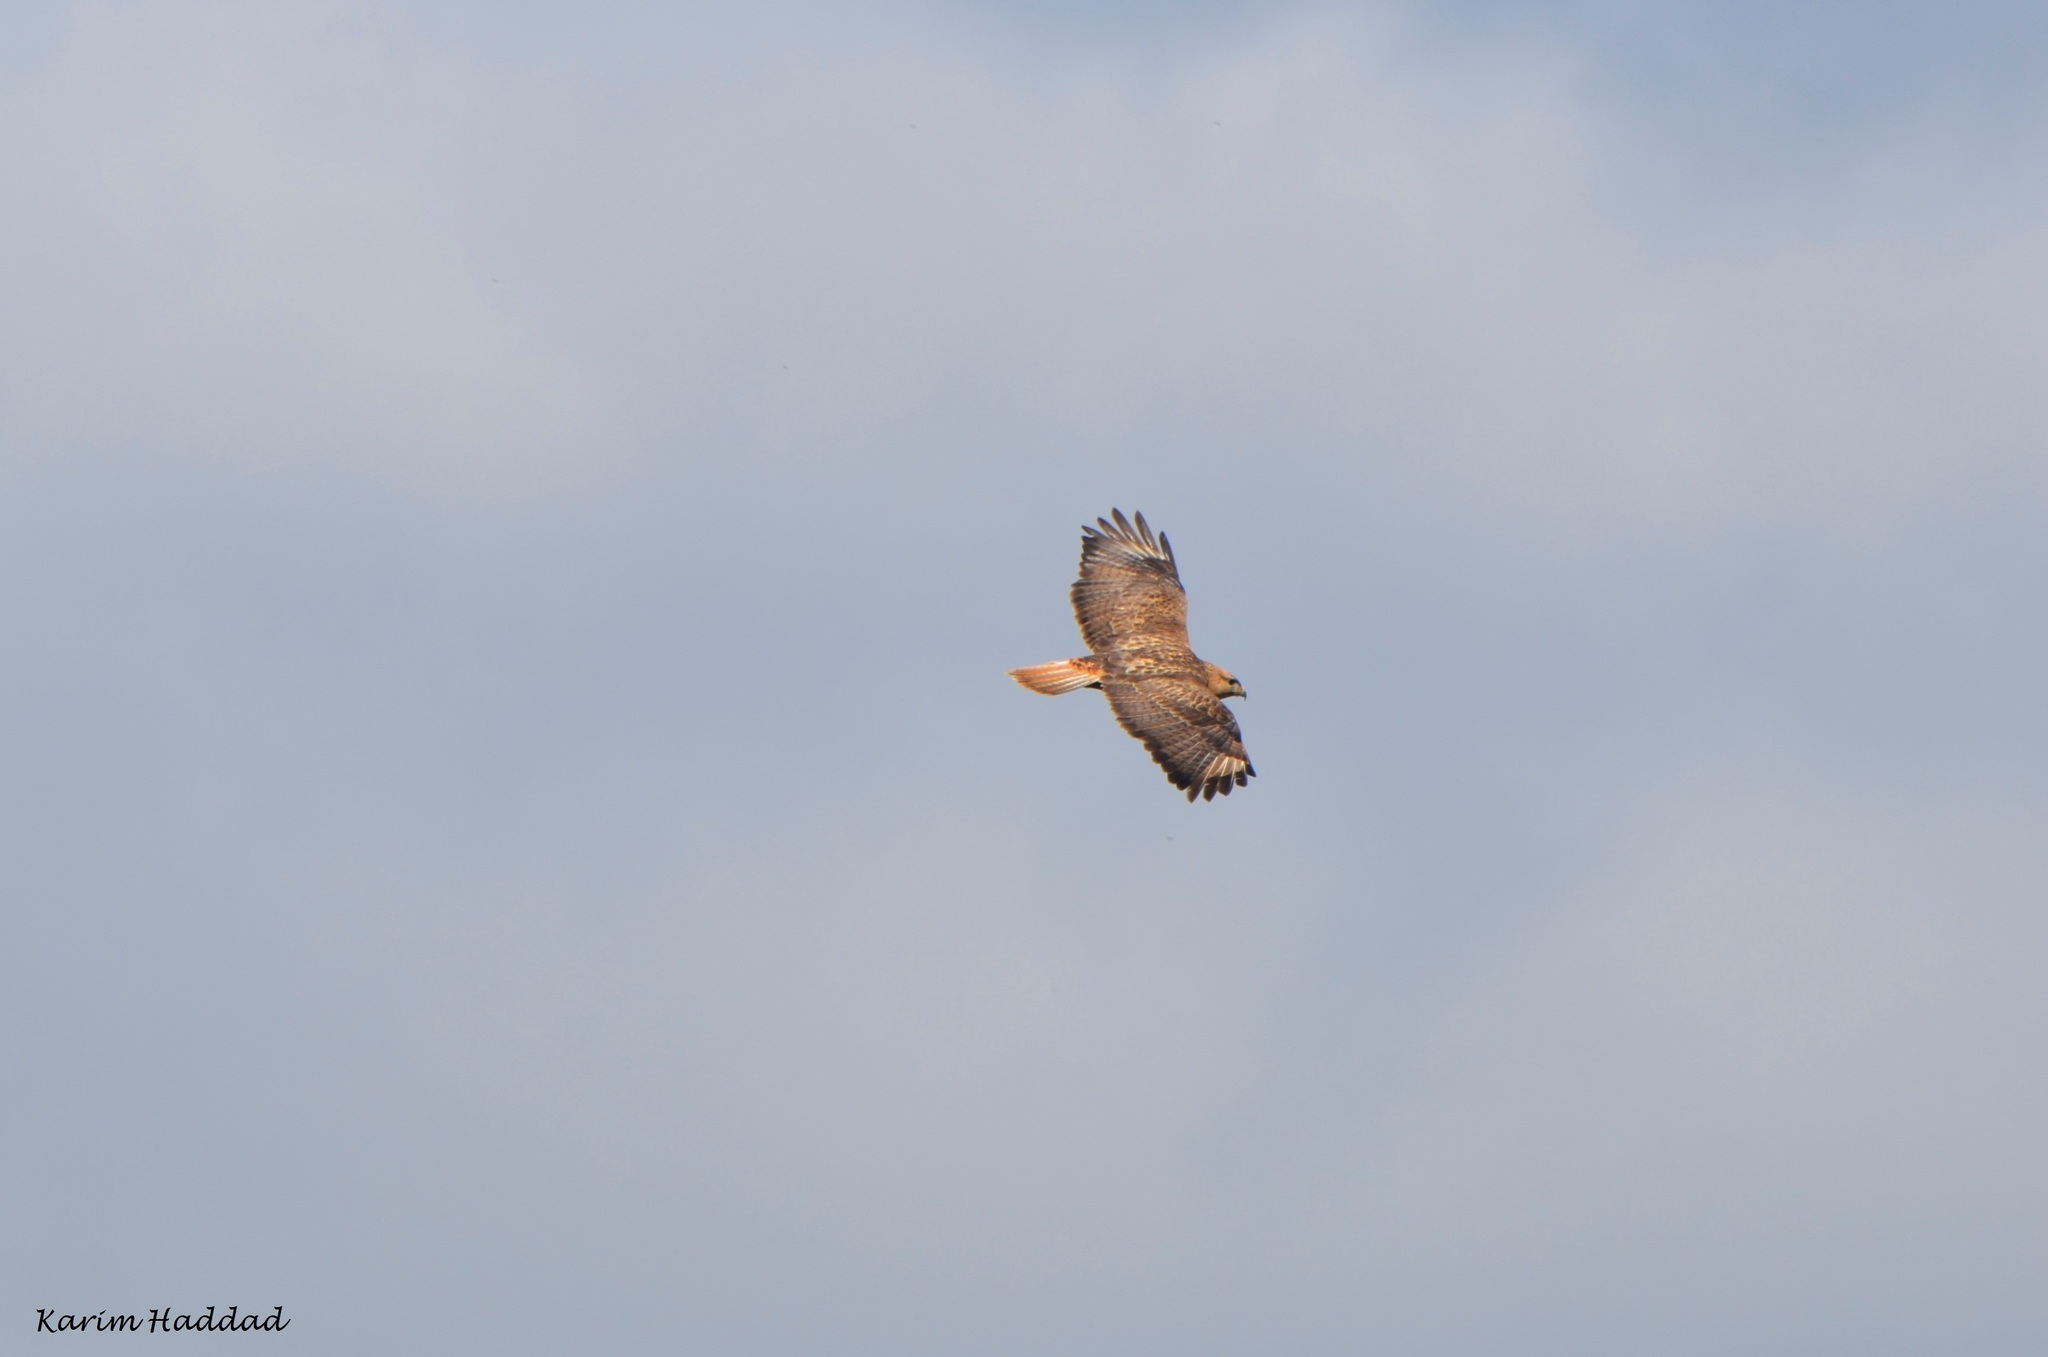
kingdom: Animalia
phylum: Chordata
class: Aves
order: Accipitriformes
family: Accipitridae
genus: Buteo
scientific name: Buteo rufinus
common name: Long-legged buzzard
